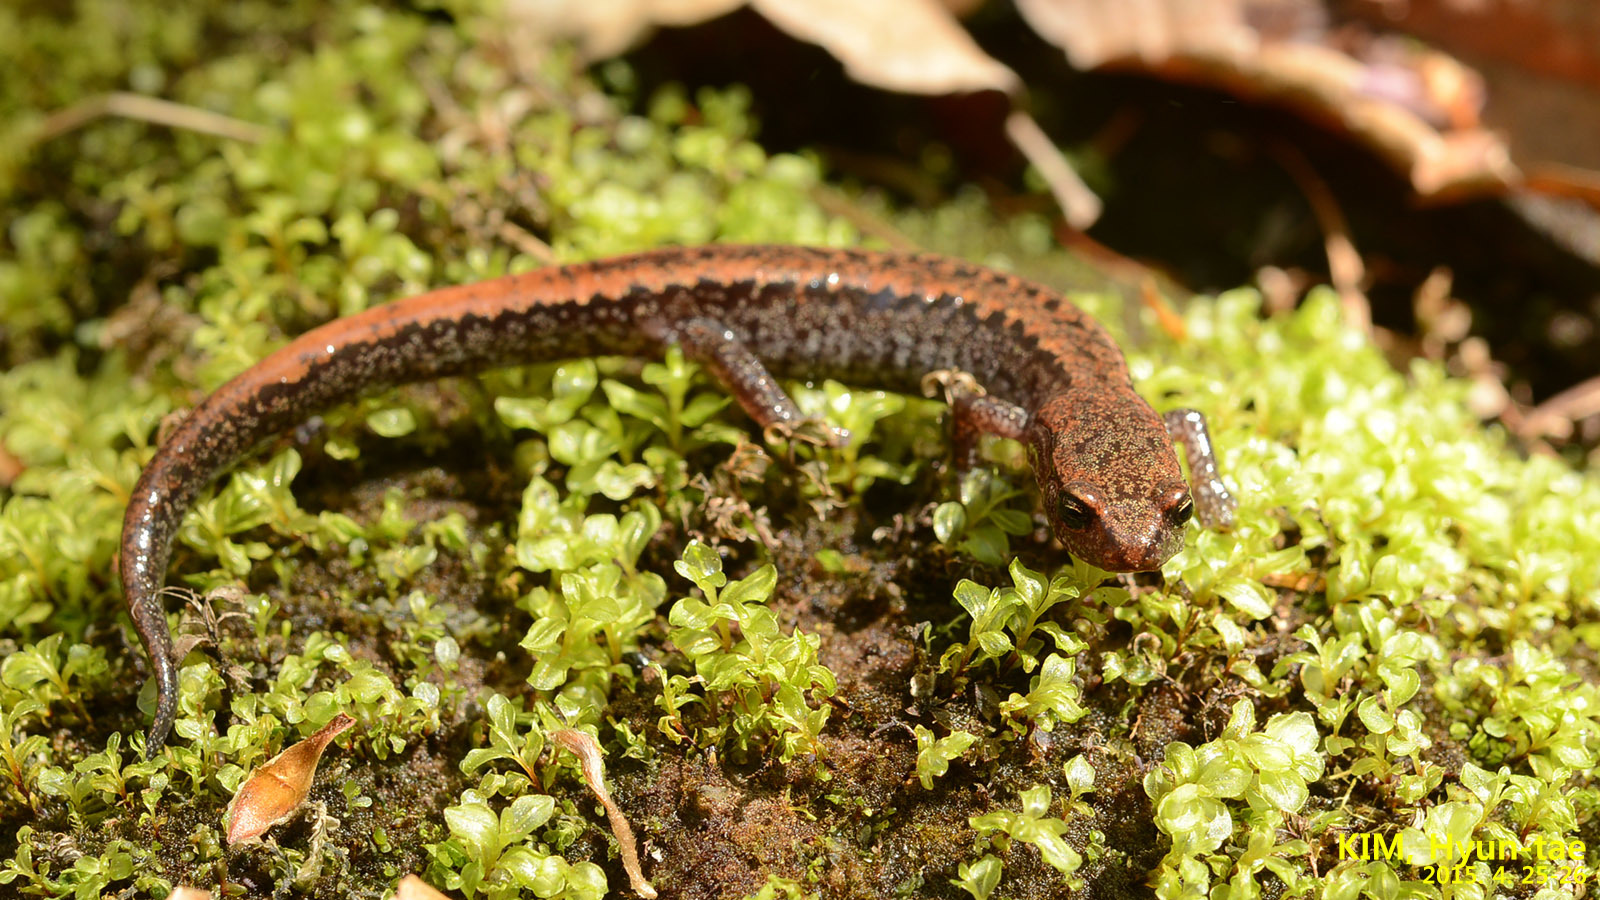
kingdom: Animalia
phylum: Chordata
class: Amphibia
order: Caudata
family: Plethodontidae
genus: Karsenia
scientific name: Karsenia koreana
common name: Korean crevice salamander
